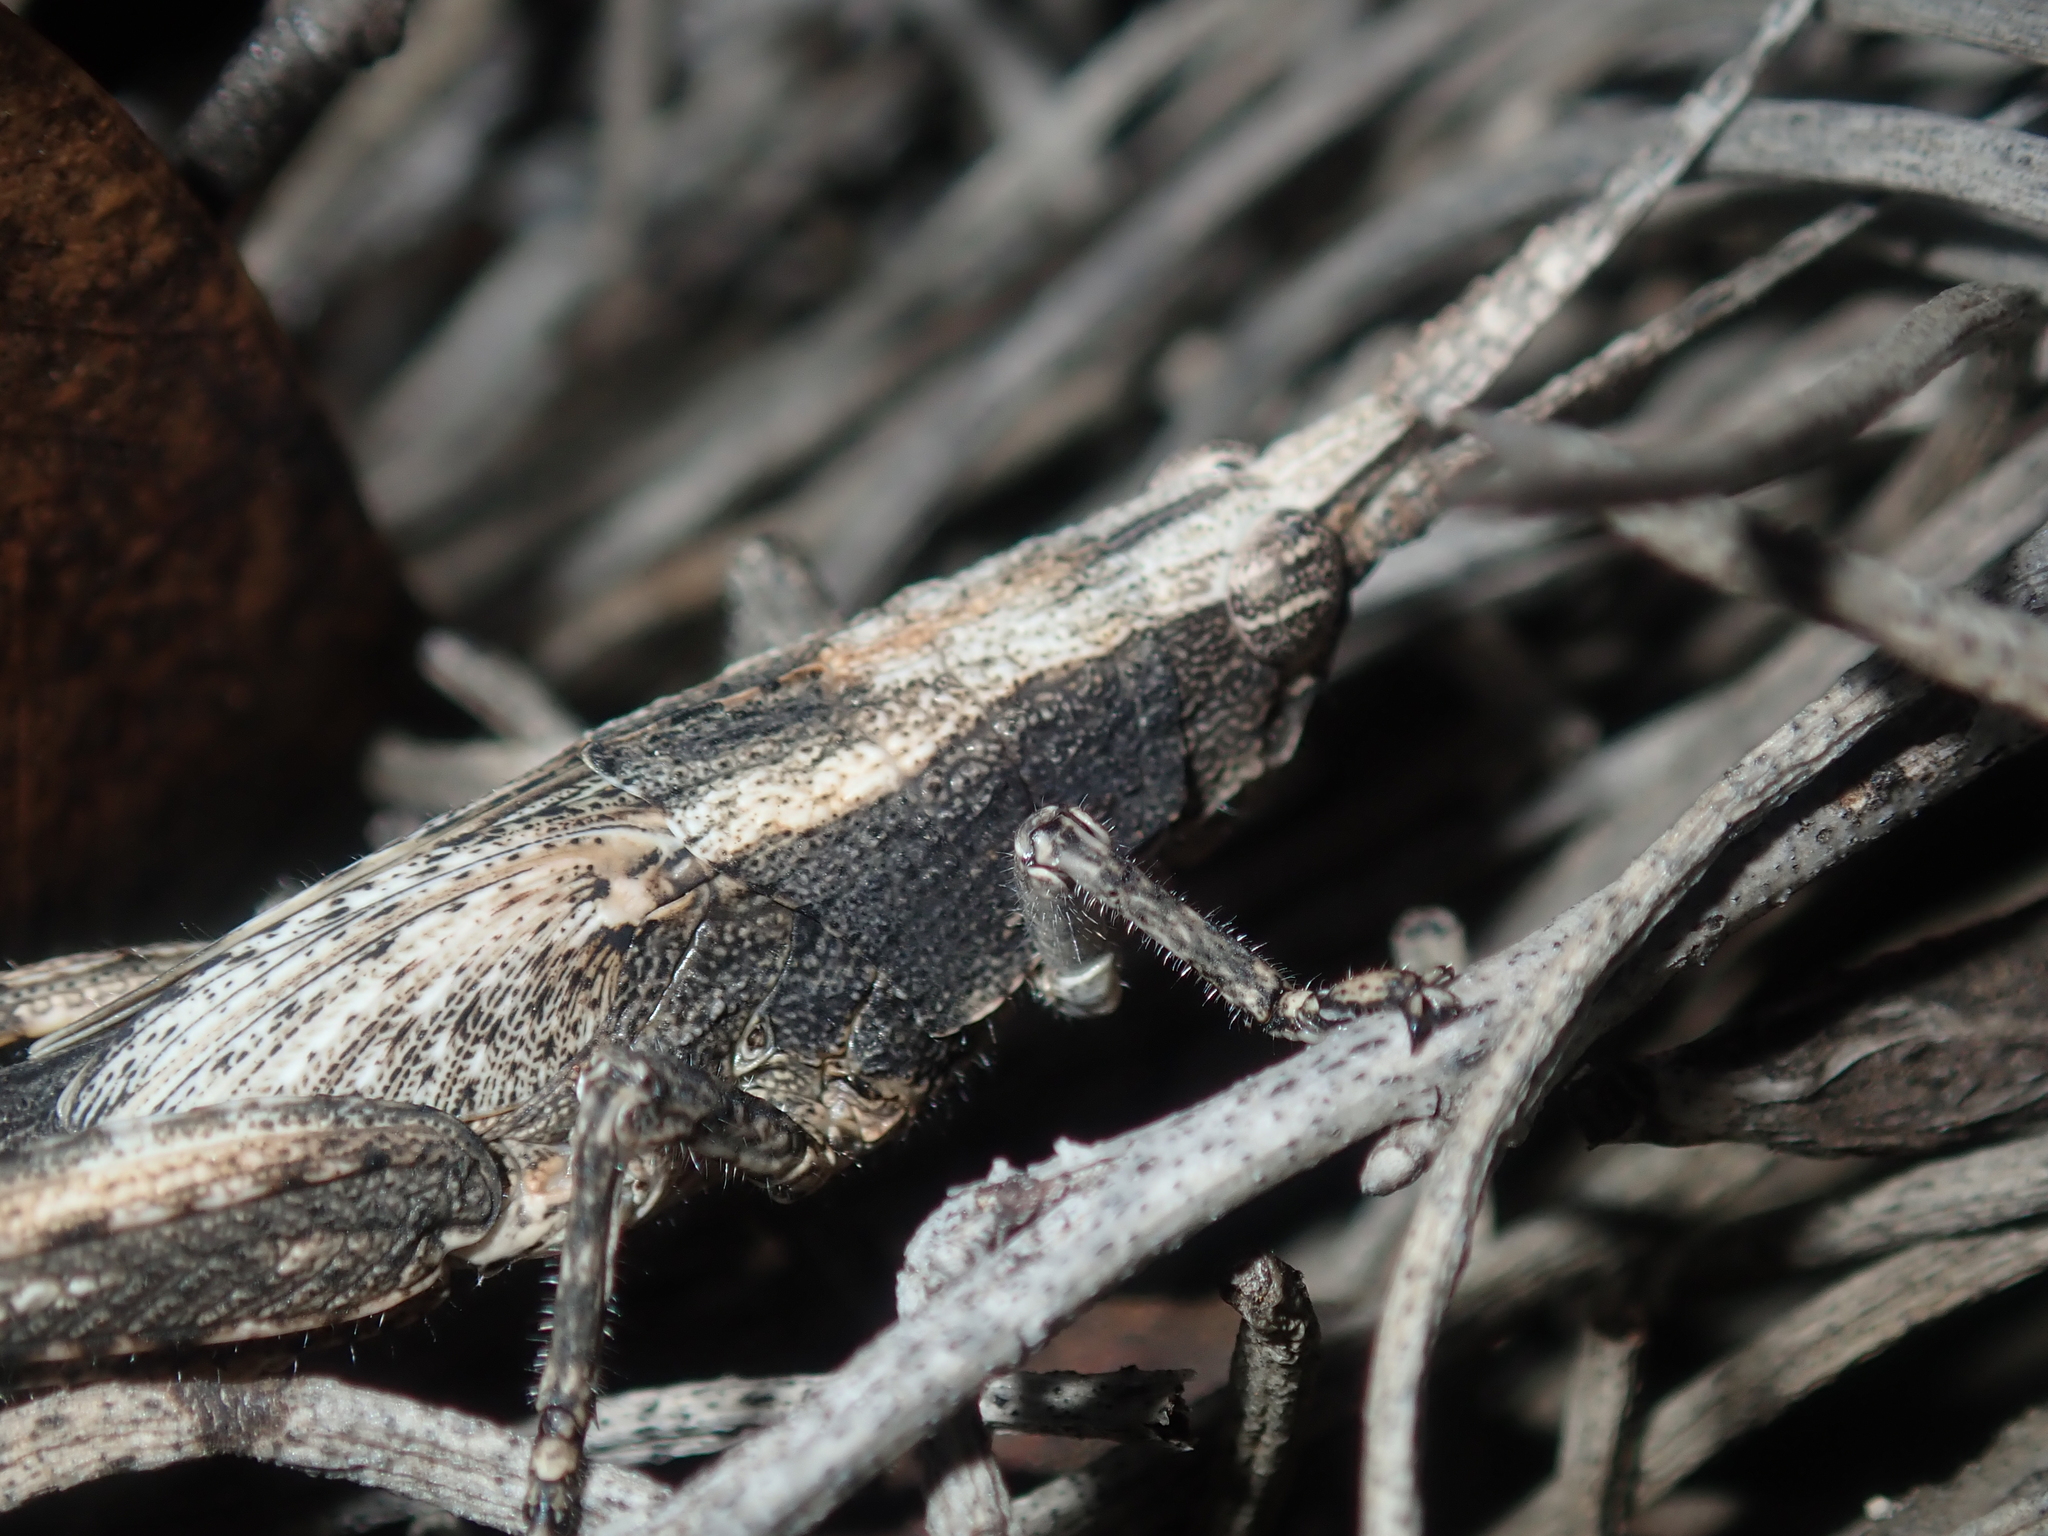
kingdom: Animalia
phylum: Arthropoda
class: Insecta
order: Orthoptera
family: Acrididae
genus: Coryphistes
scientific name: Coryphistes ruricola
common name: Bark-mimicking grasshopper
